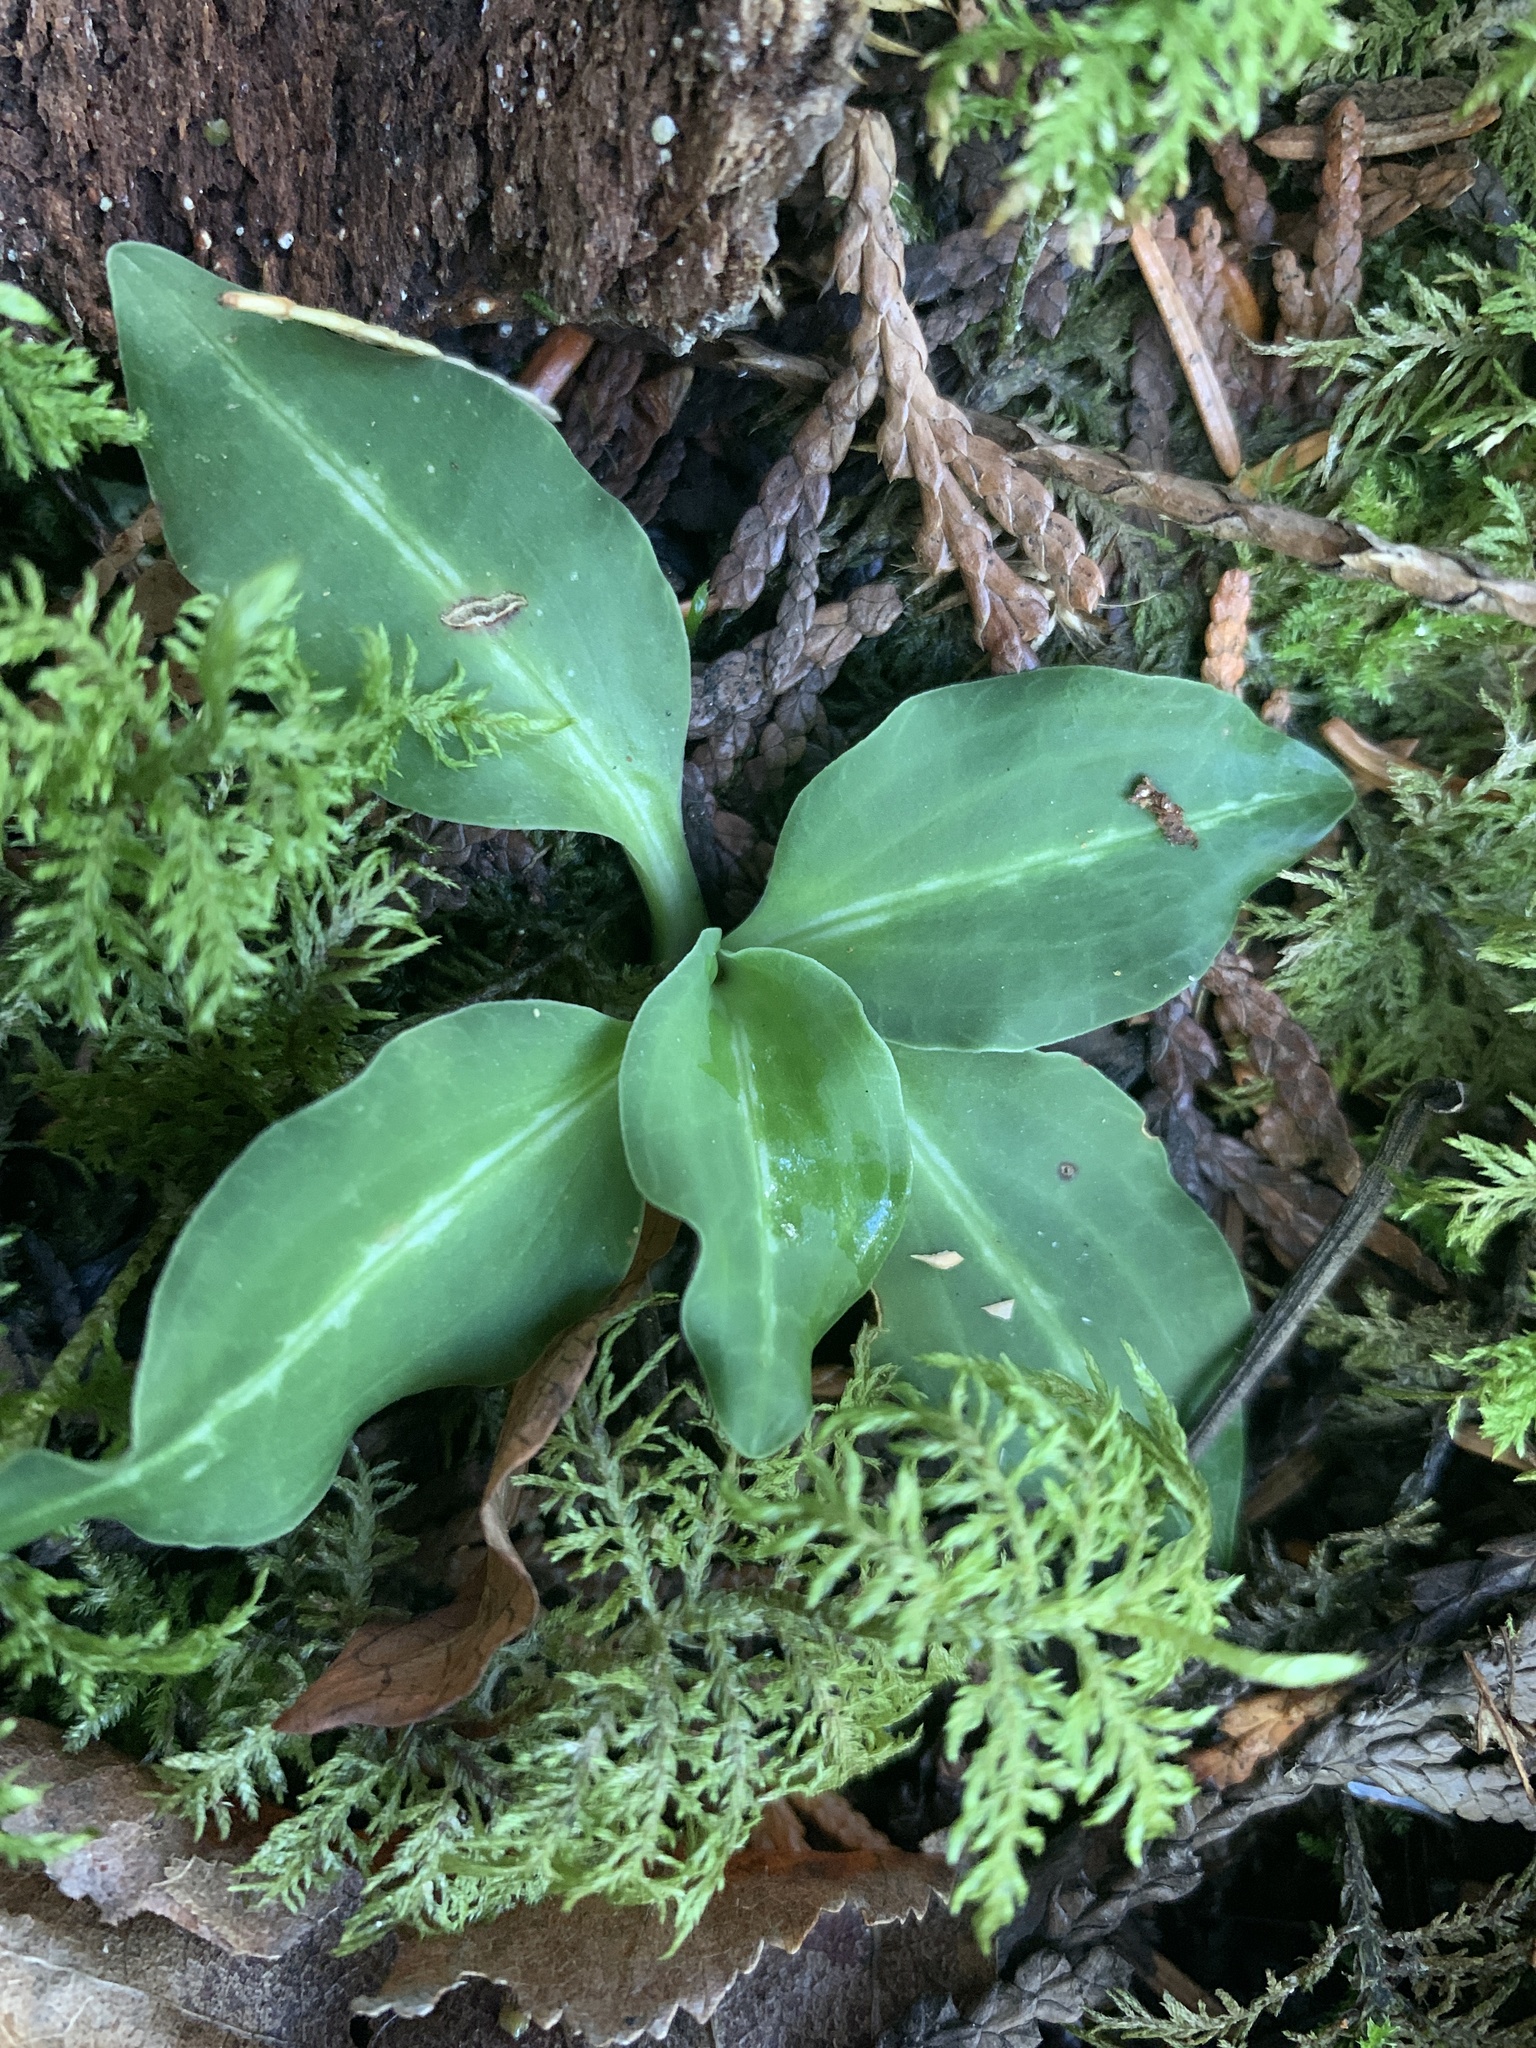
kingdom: Plantae
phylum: Tracheophyta
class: Liliopsida
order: Asparagales
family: Orchidaceae
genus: Goodyera
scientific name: Goodyera oblongifolia
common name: Giant rattlesnake-plantain
